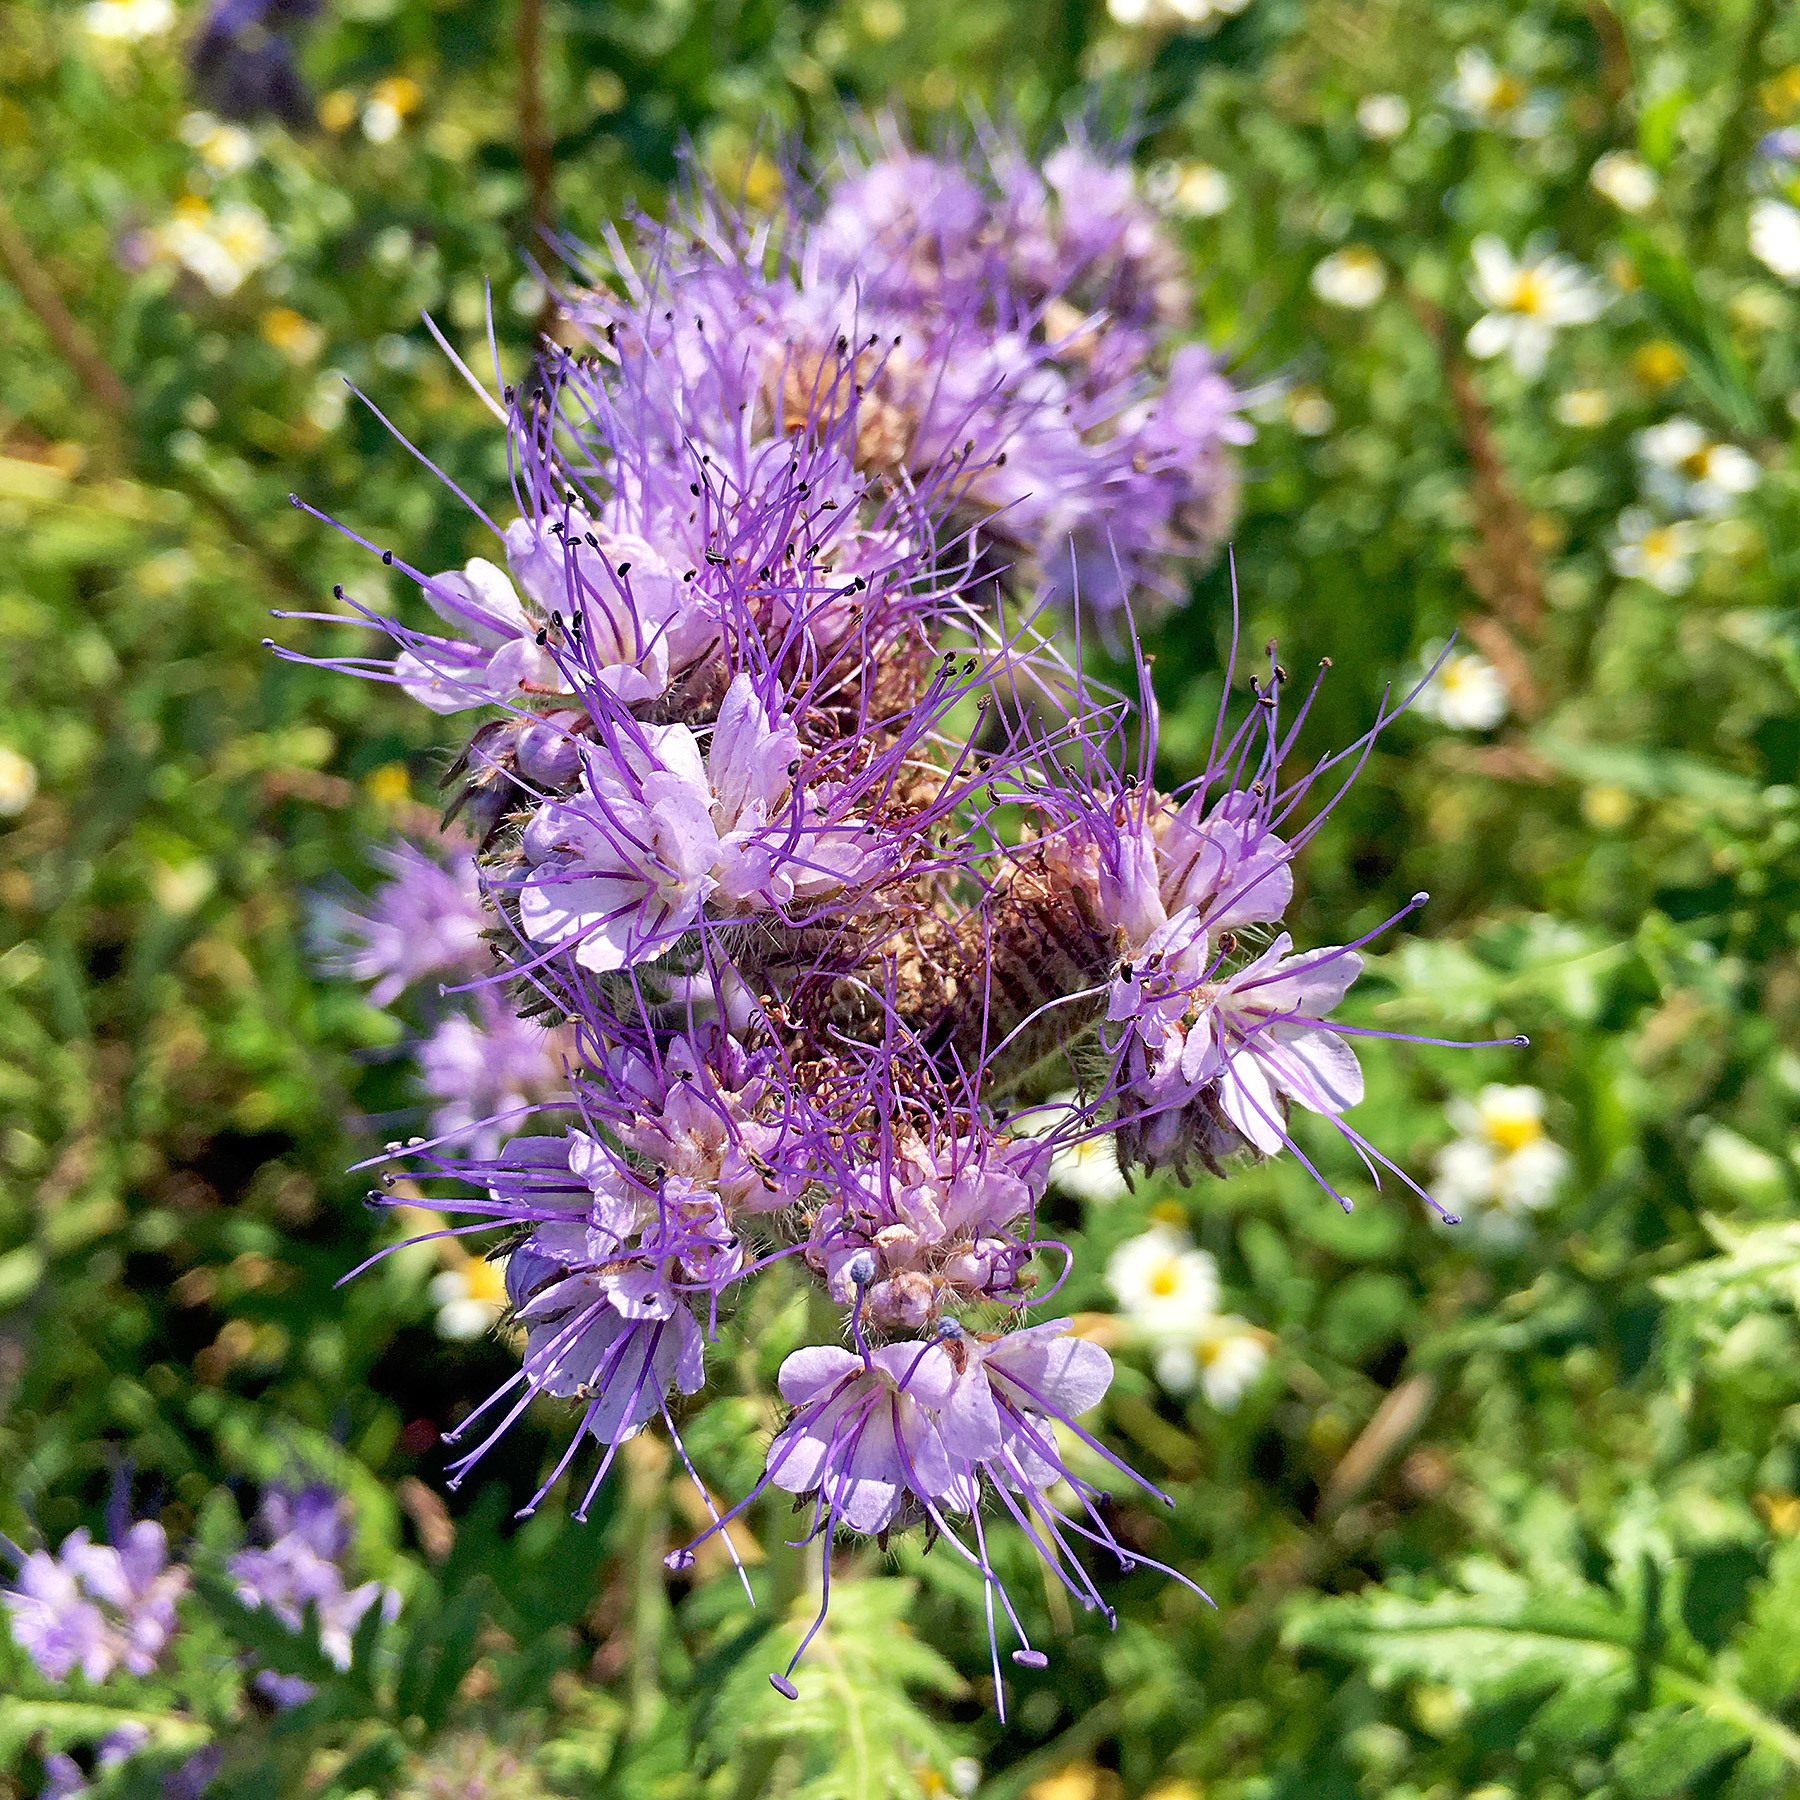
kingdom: Plantae
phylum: Tracheophyta
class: Magnoliopsida
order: Boraginales
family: Hydrophyllaceae
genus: Phacelia
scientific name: Phacelia tanacetifolia
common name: Phacelia
